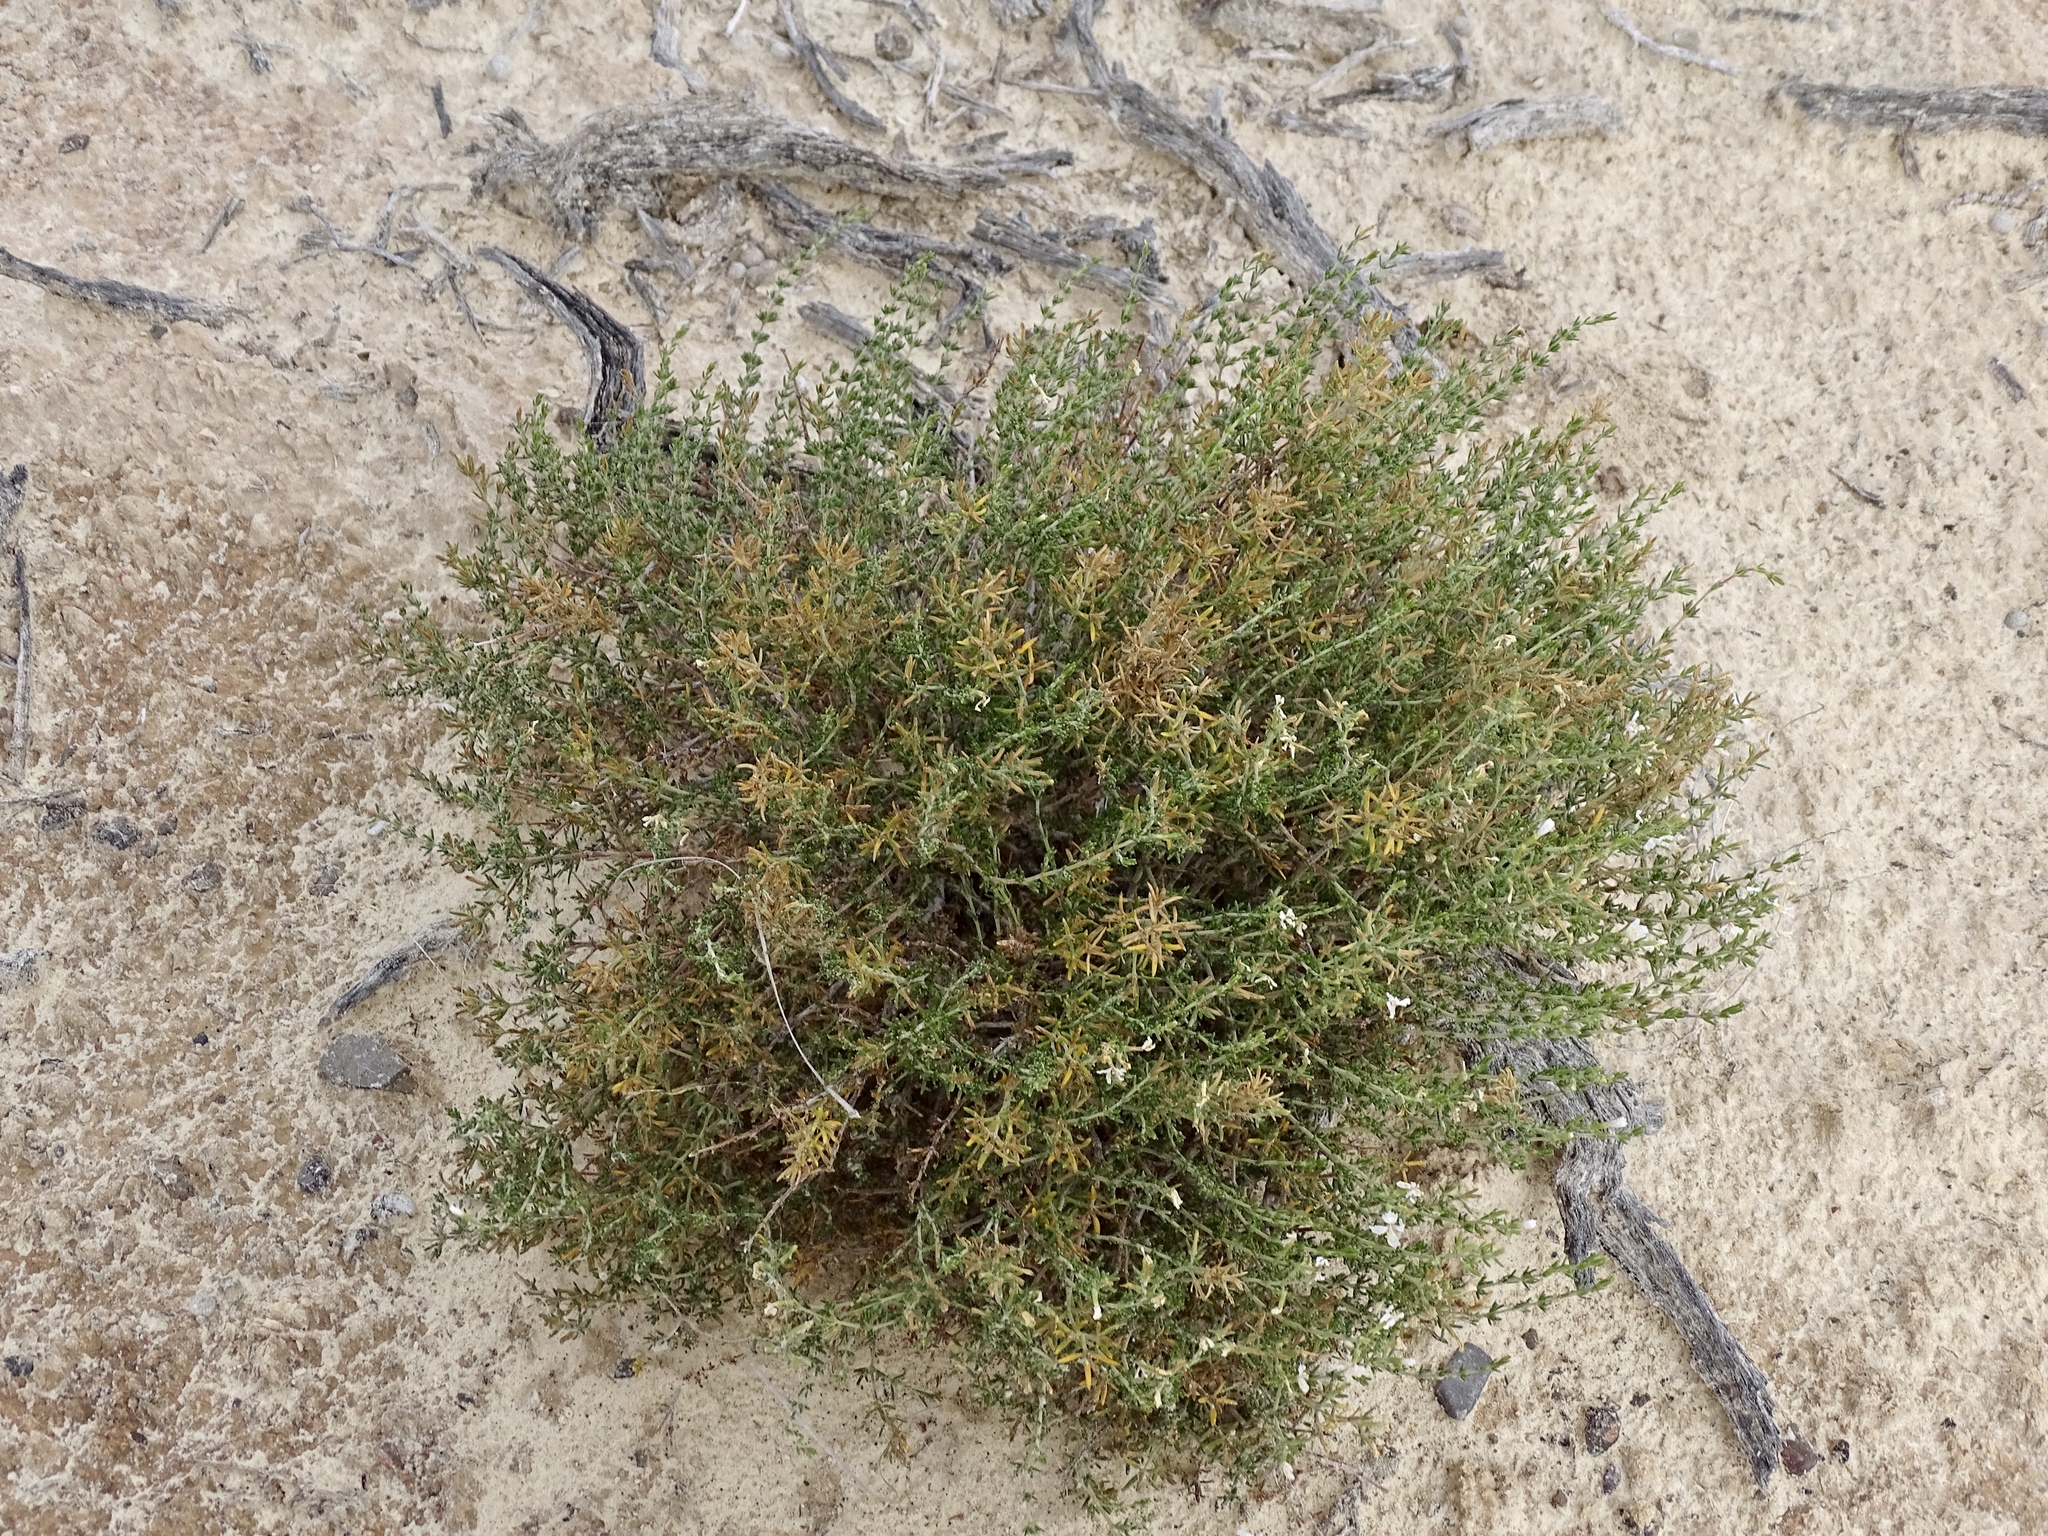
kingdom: Plantae
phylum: Tracheophyta
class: Magnoliopsida
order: Caryophyllales
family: Frankeniaceae
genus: Frankenia
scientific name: Frankenia jamesii
